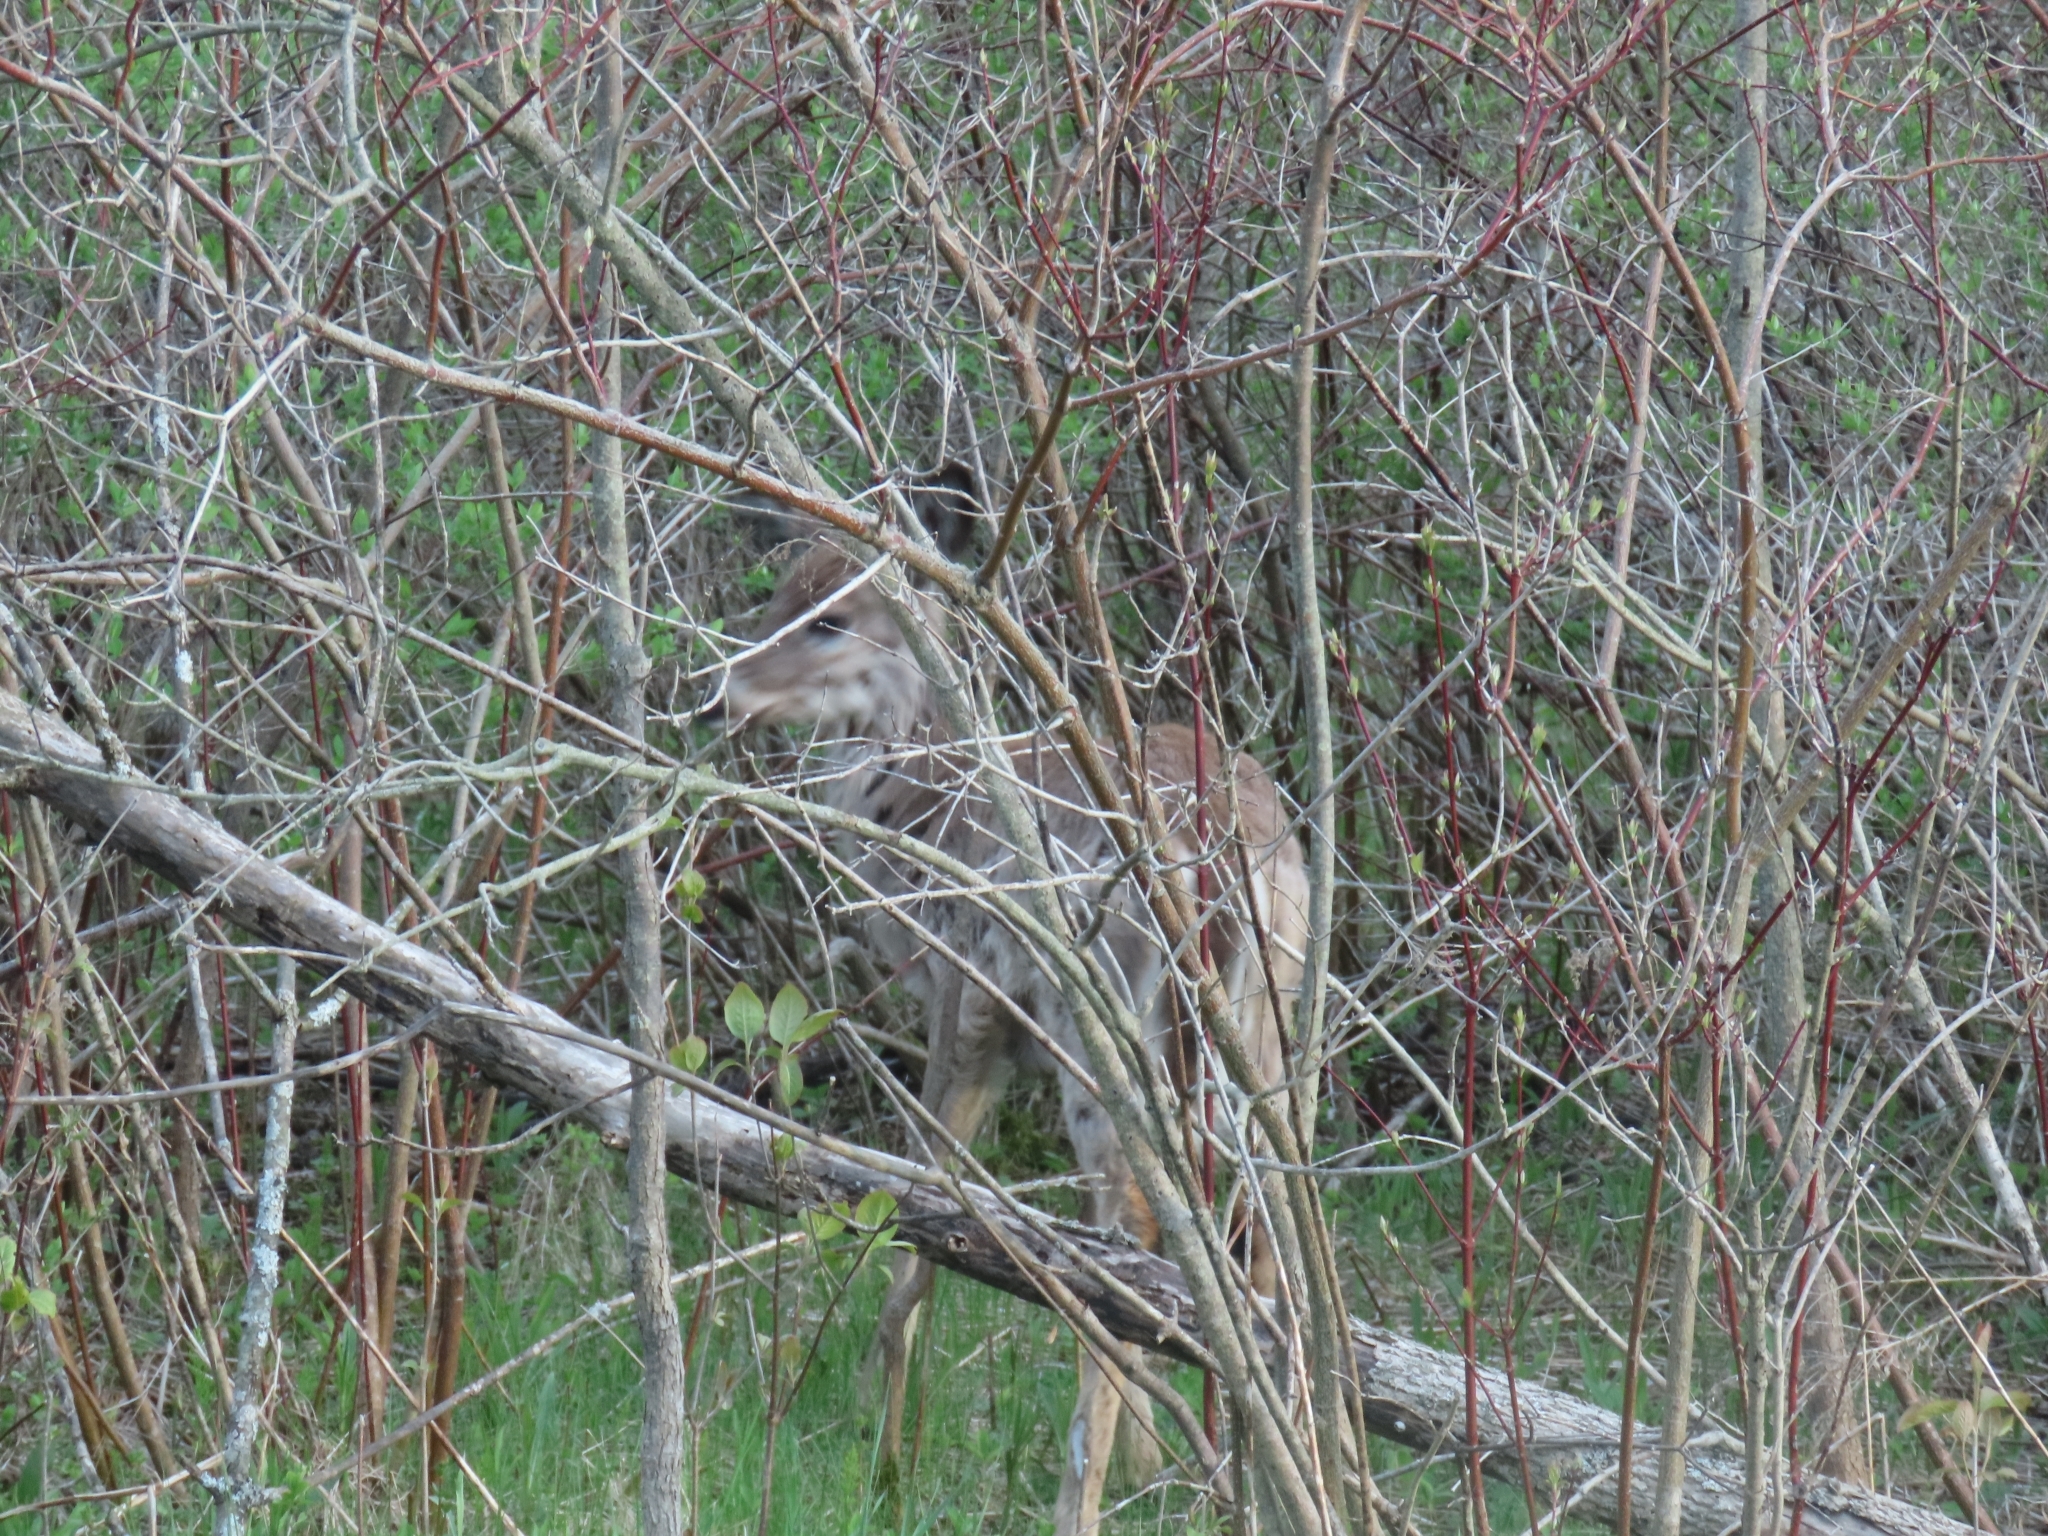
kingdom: Animalia
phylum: Chordata
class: Mammalia
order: Artiodactyla
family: Cervidae
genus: Odocoileus
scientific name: Odocoileus virginianus
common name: White-tailed deer
